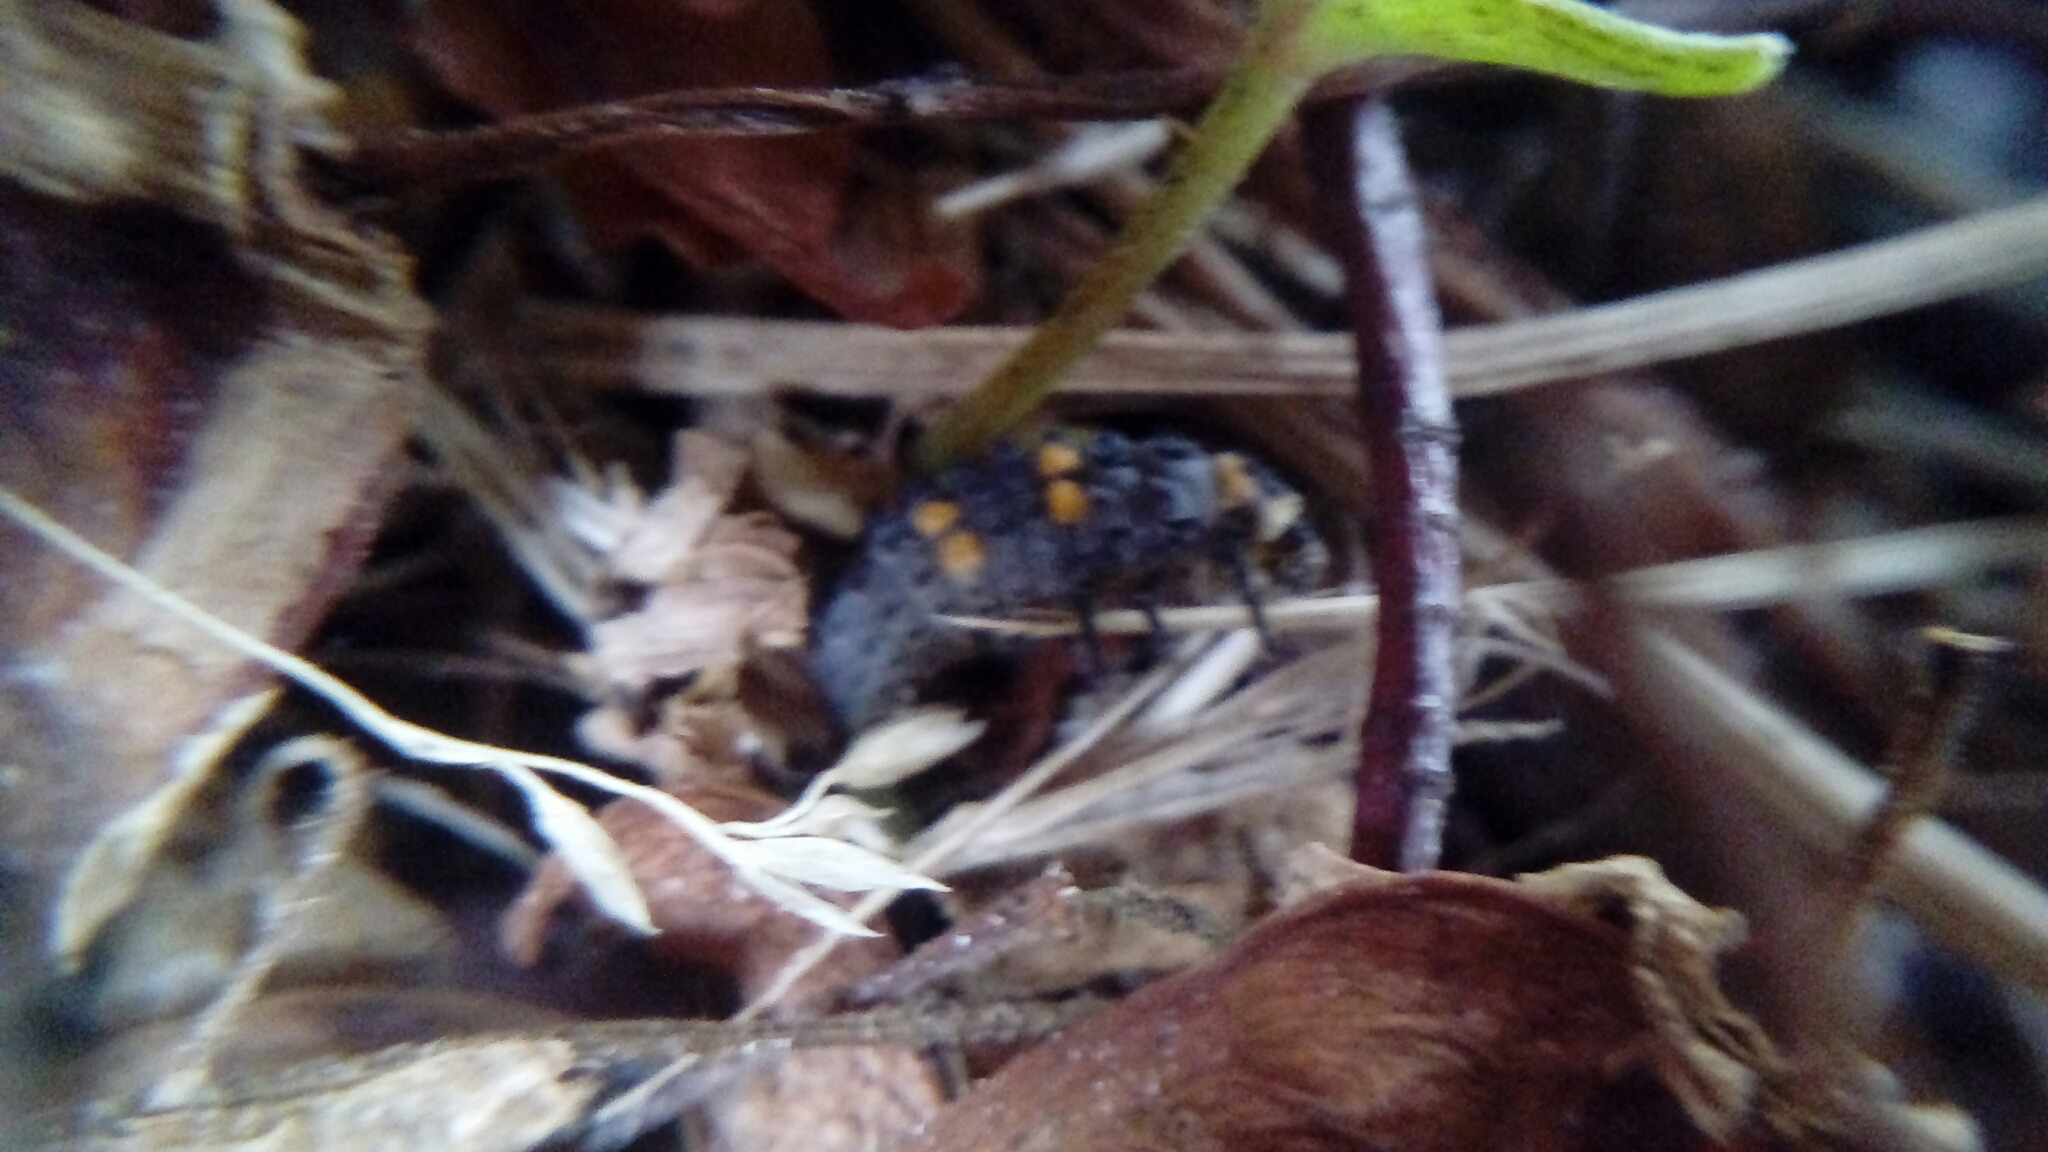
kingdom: Animalia
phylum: Arthropoda
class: Insecta
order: Coleoptera
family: Coccinellidae
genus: Coccinella
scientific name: Coccinella septempunctata
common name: Sevenspotted lady beetle
